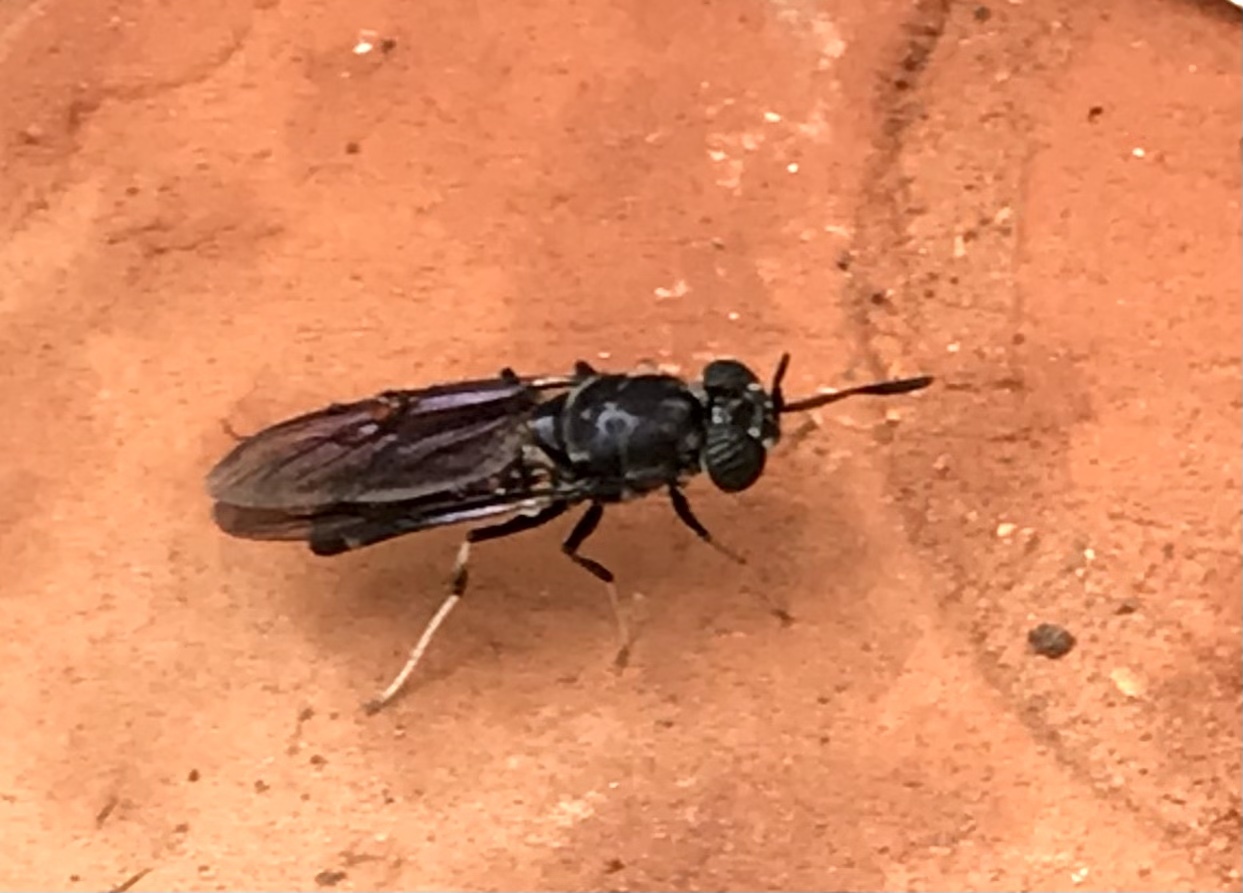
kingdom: Animalia
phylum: Arthropoda
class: Insecta
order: Diptera
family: Stratiomyidae
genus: Hermetia
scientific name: Hermetia illucens
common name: Black soldier fly
